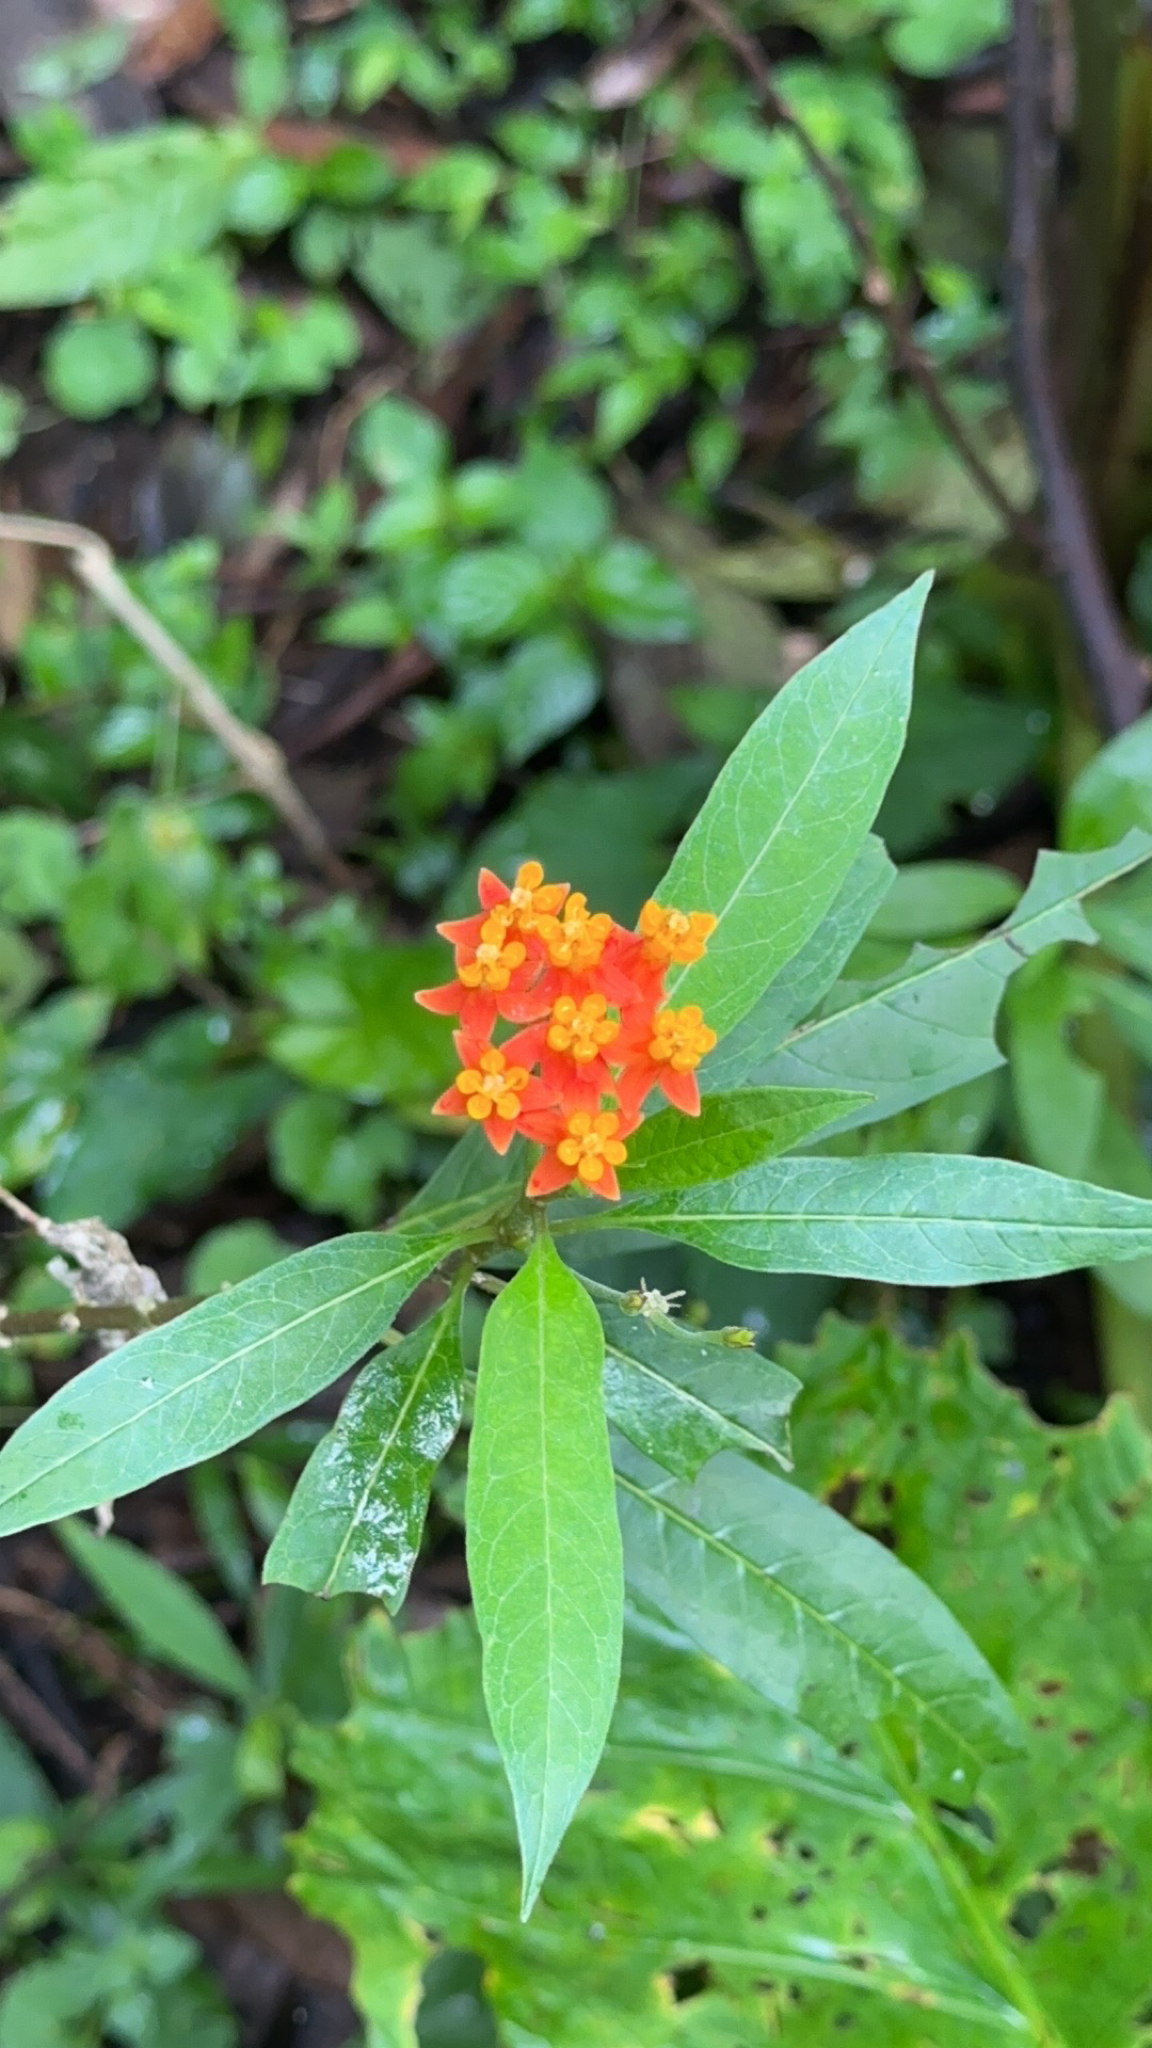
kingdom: Plantae
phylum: Tracheophyta
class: Magnoliopsida
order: Gentianales
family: Apocynaceae
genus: Asclepias
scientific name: Asclepias curassavica
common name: Bloodflower
